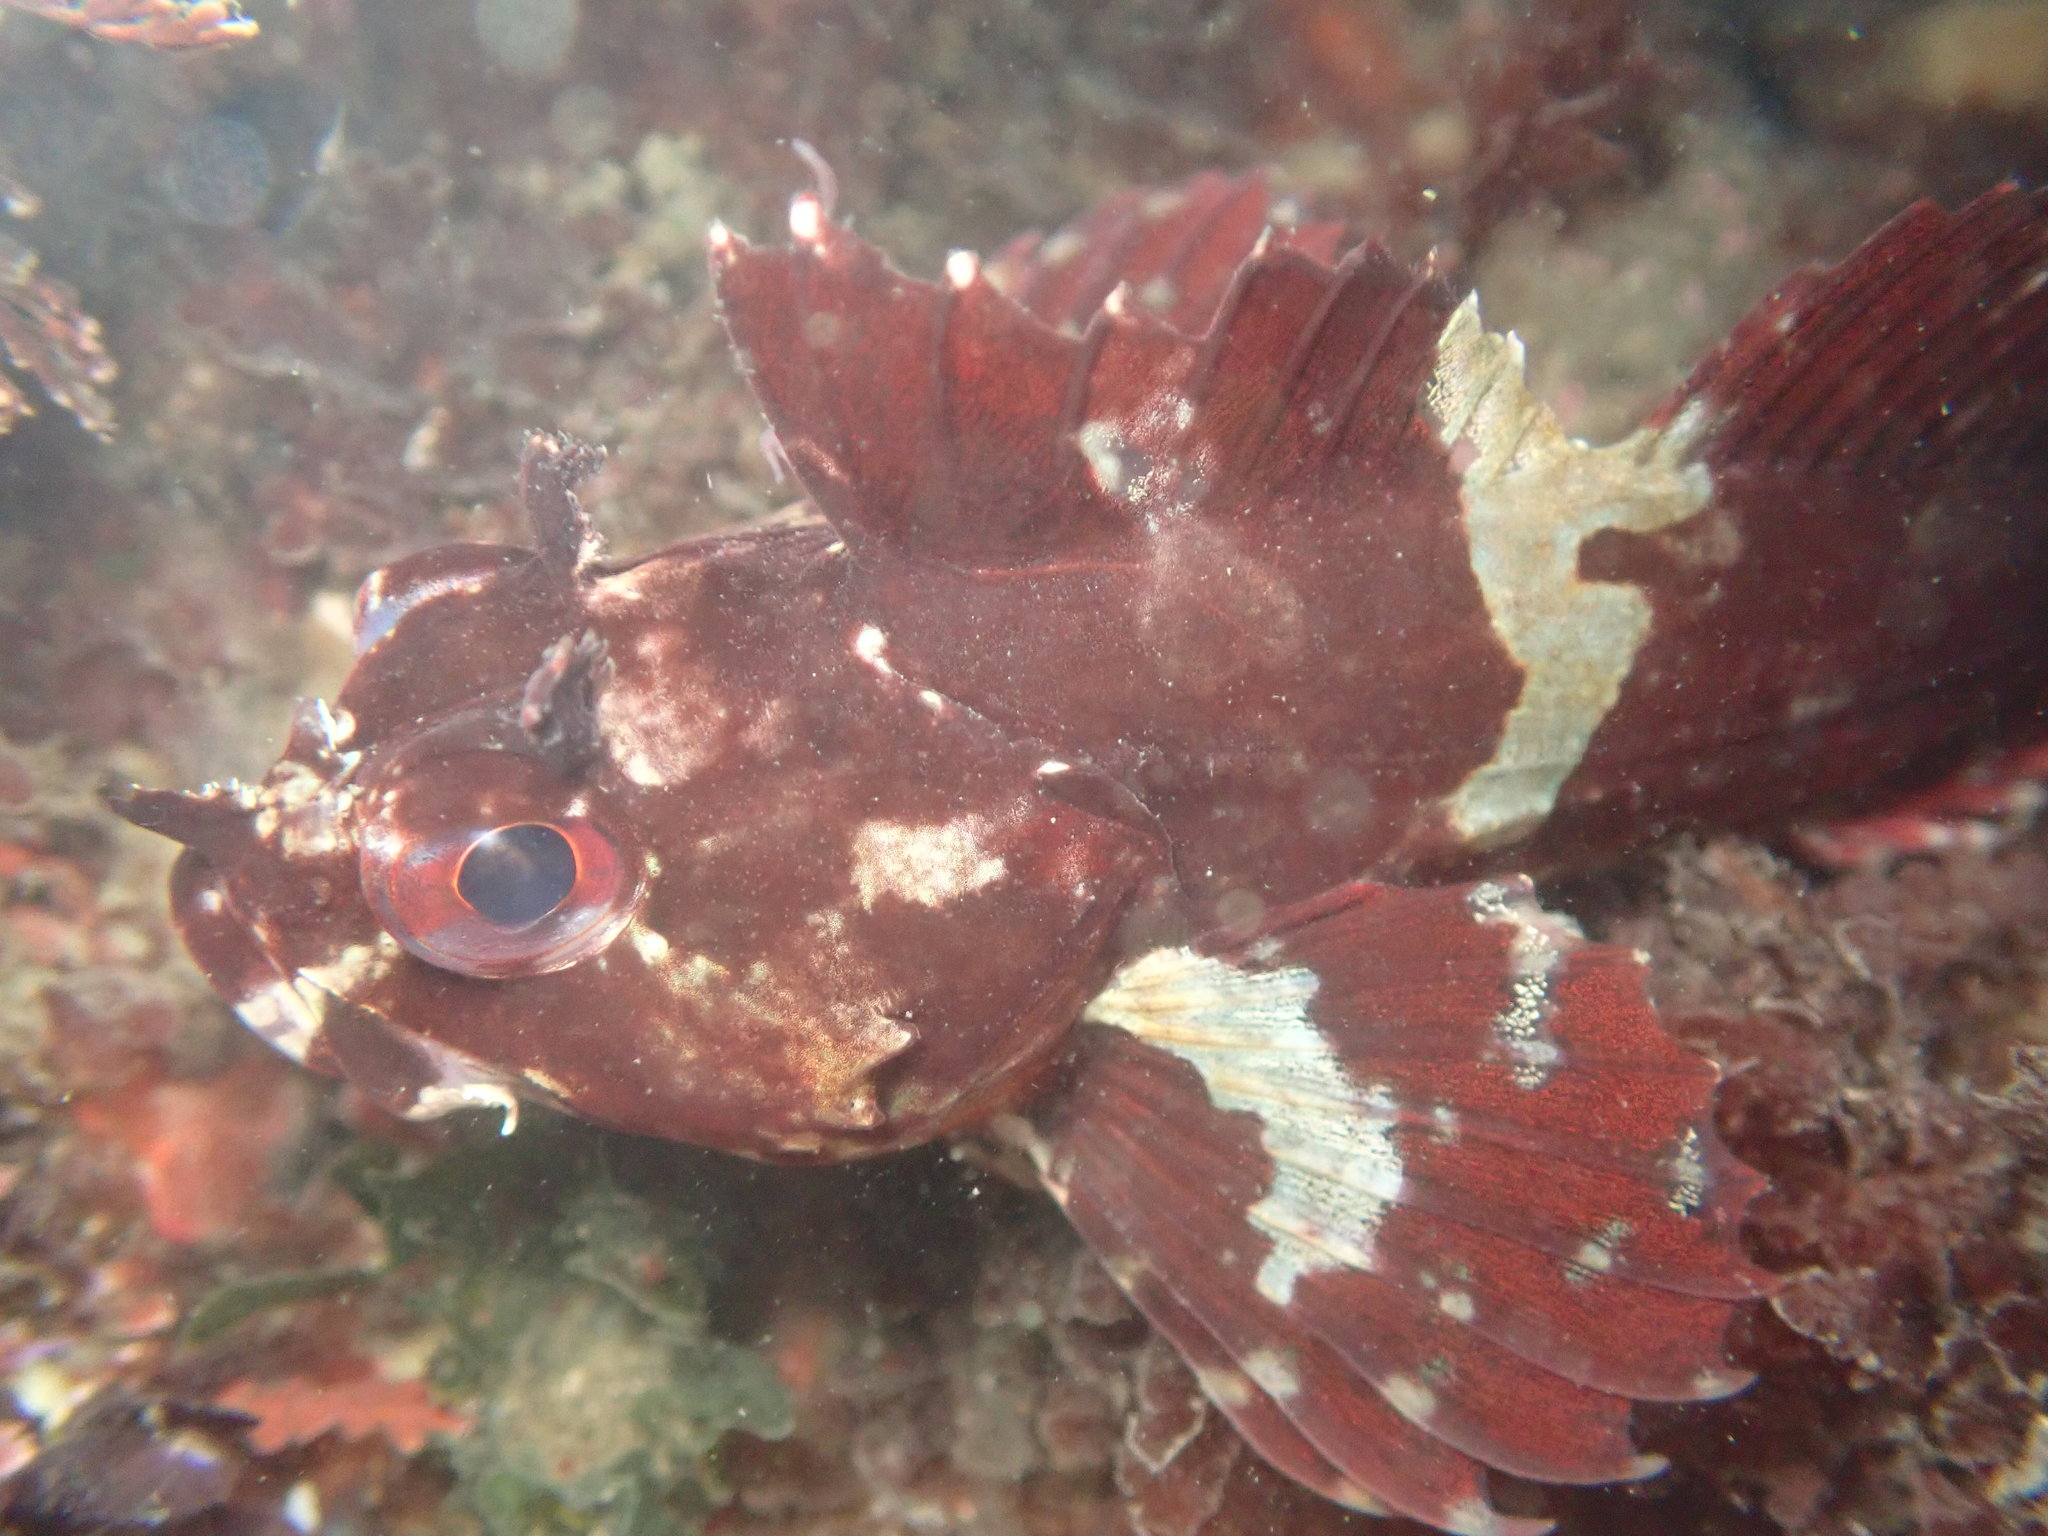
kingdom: Animalia
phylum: Chordata
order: Scorpaeniformes
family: Cottidae
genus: Scorpaenichthys
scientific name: Scorpaenichthys marmoratus
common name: Cabezon
